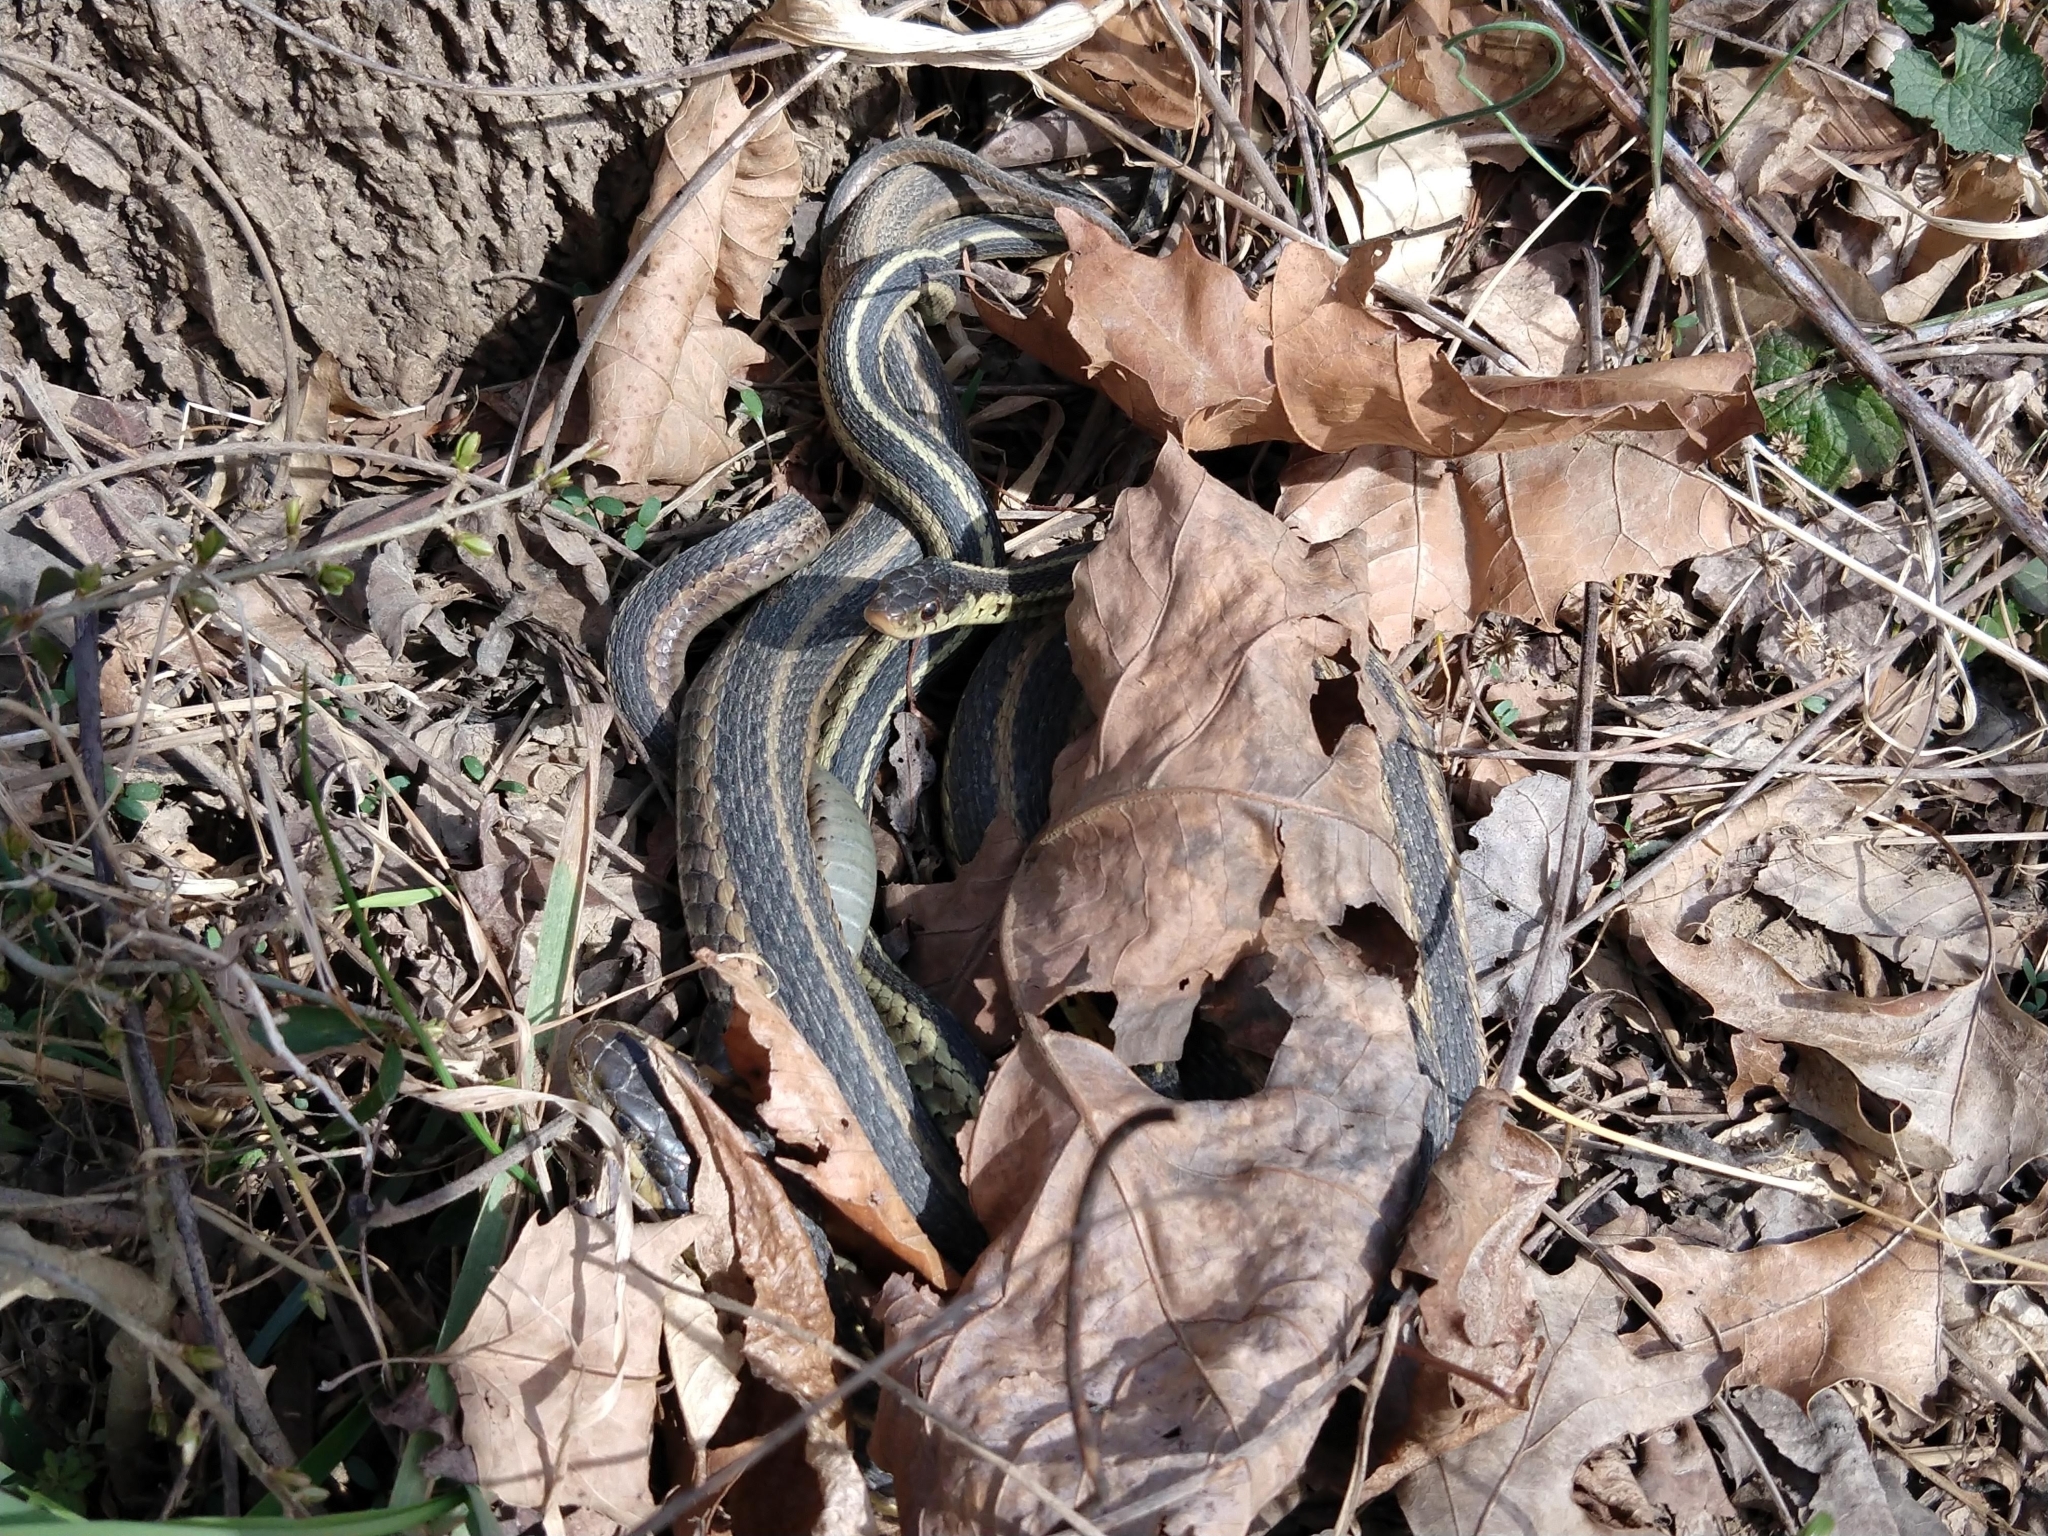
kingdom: Animalia
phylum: Chordata
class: Squamata
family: Colubridae
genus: Thamnophis
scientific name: Thamnophis sirtalis
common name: Common garter snake
